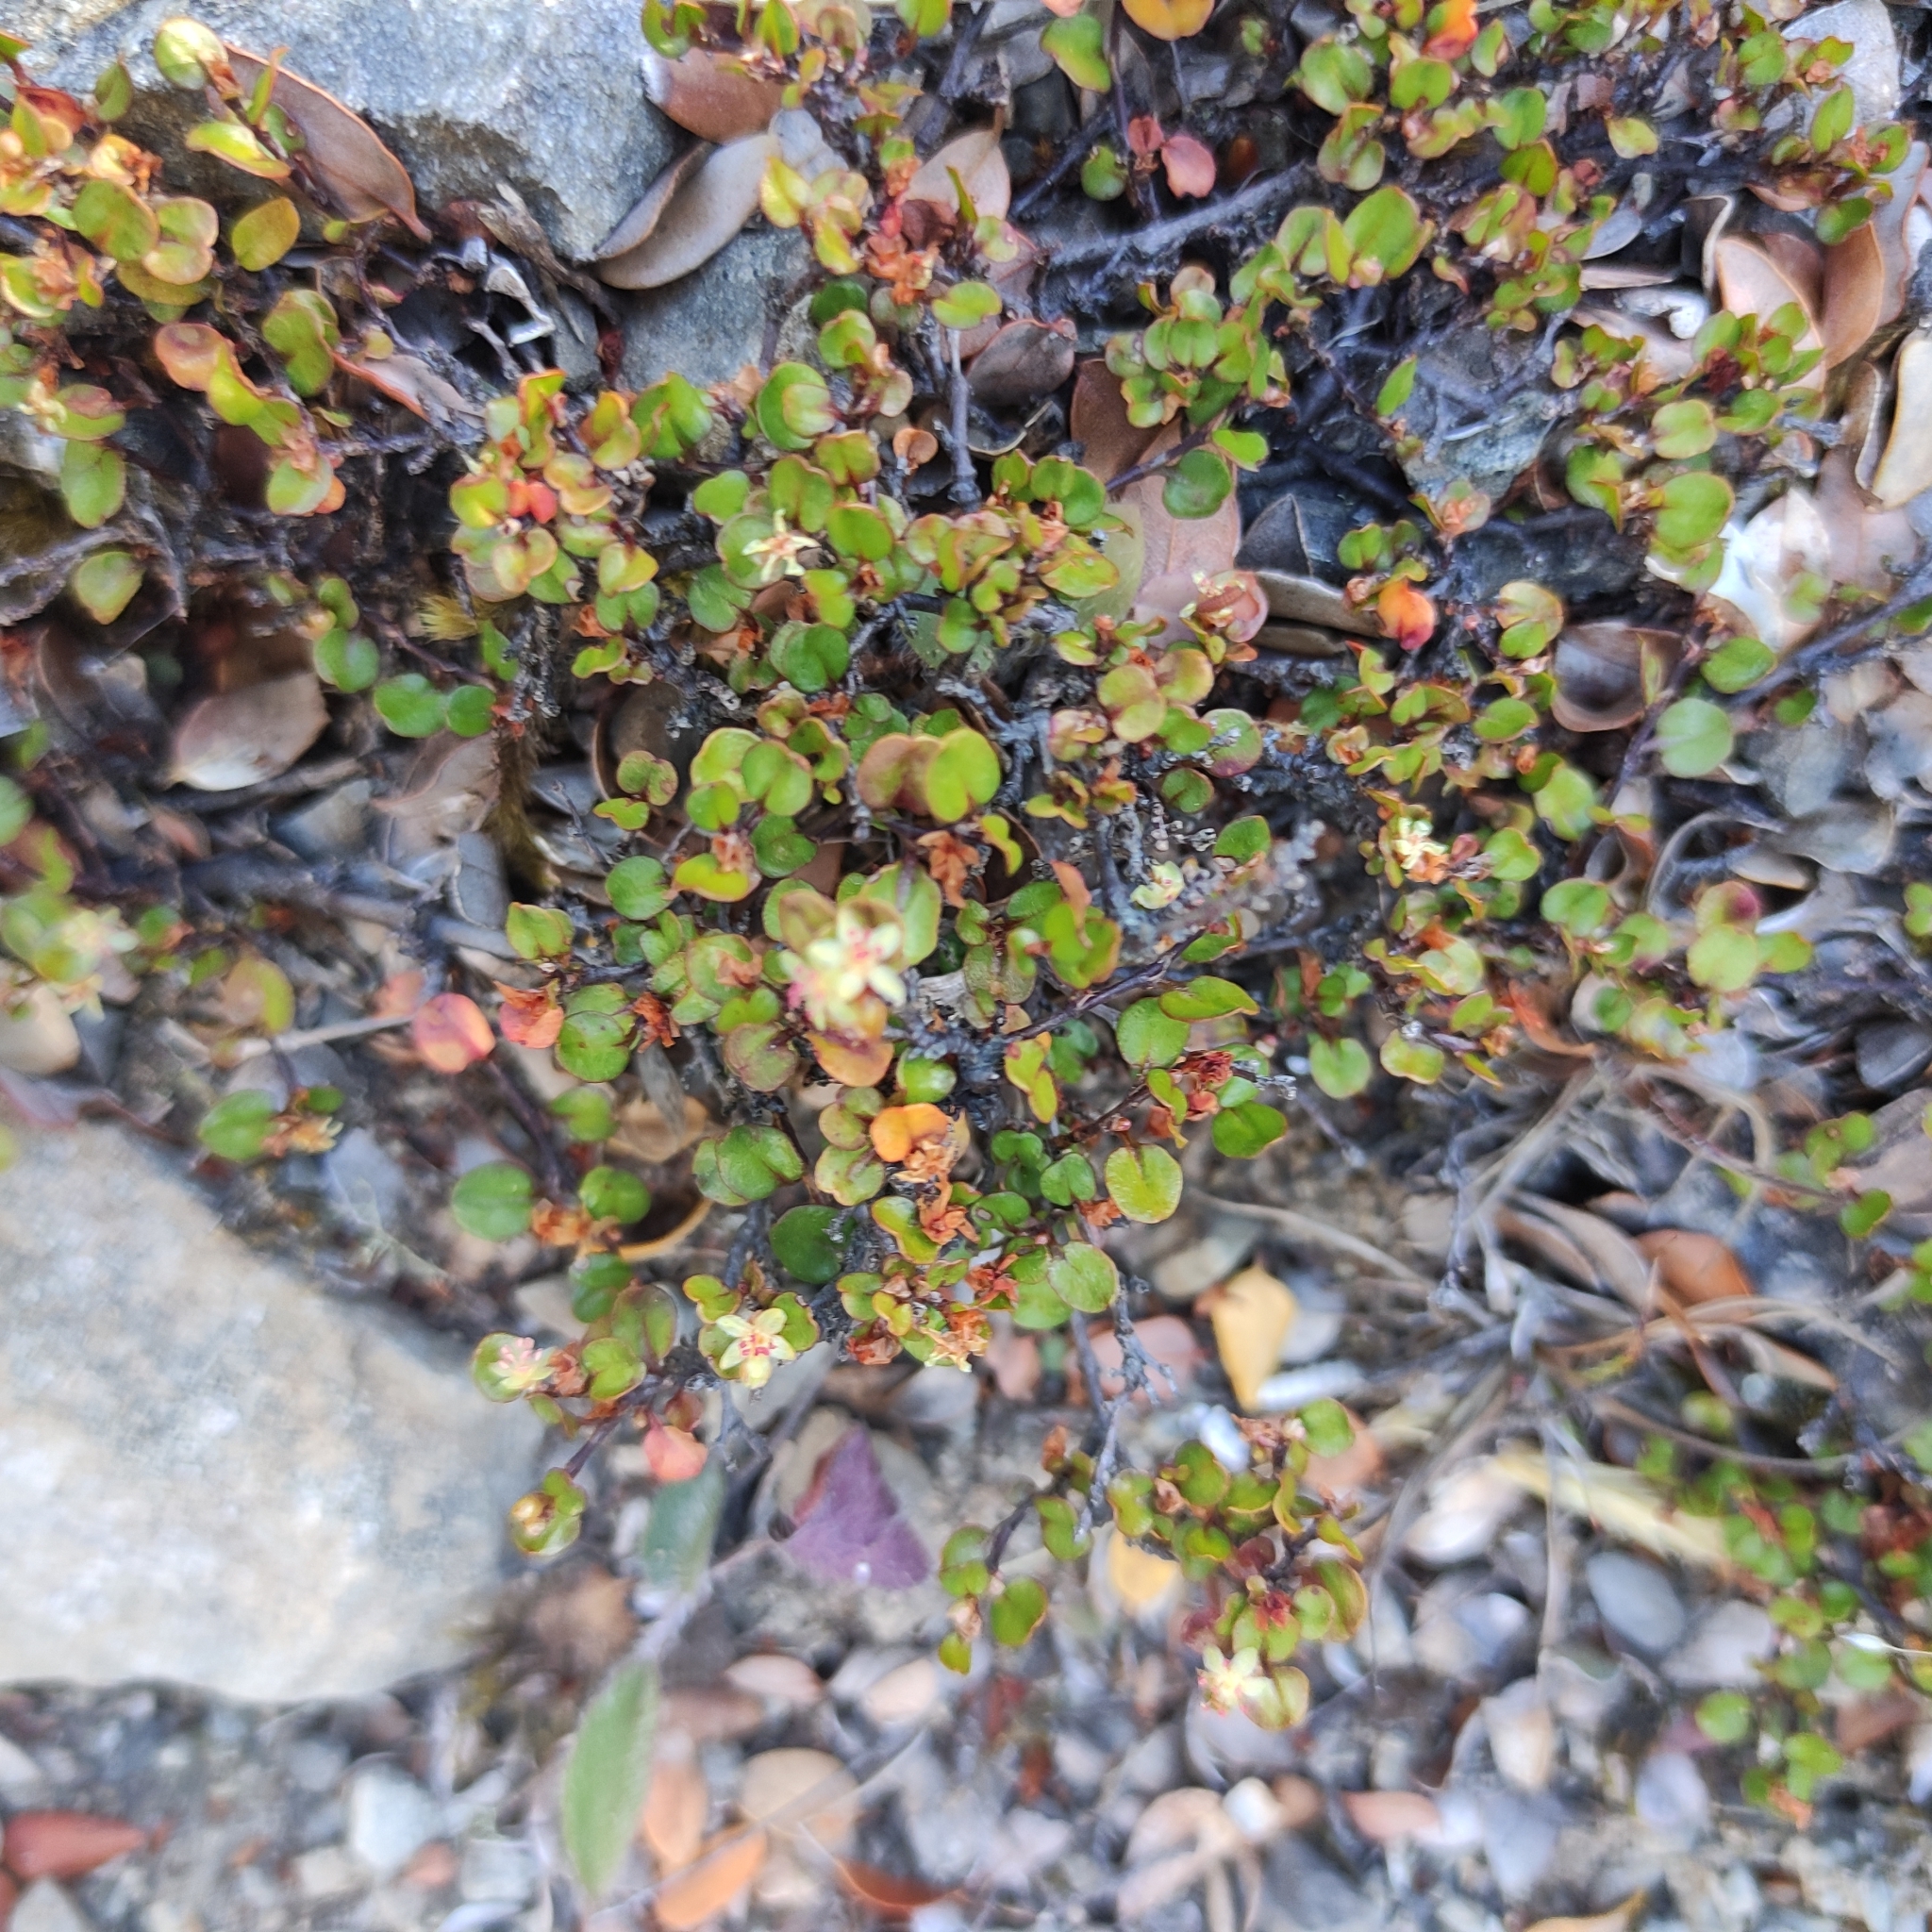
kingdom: Plantae
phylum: Tracheophyta
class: Magnoliopsida
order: Caryophyllales
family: Polygonaceae
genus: Muehlenbeckia
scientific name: Muehlenbeckia axillaris
